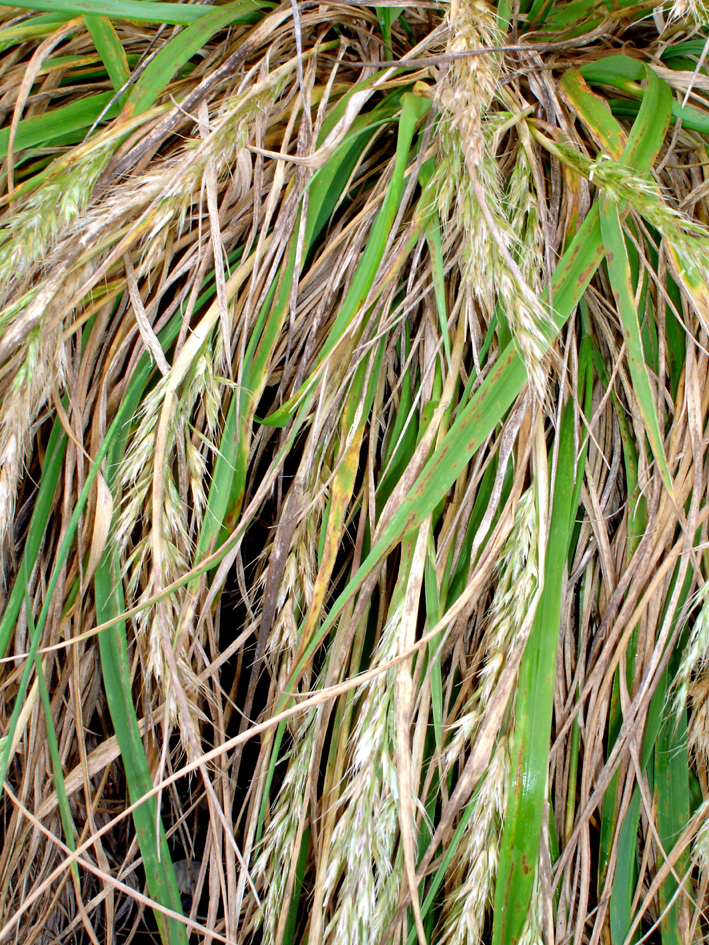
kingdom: Plantae
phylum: Tracheophyta
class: Liliopsida
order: Poales
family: Poaceae
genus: Koeleria
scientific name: Koeleria arduana
